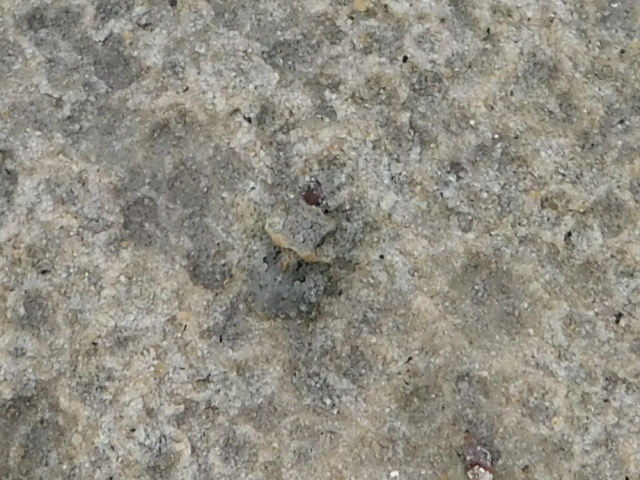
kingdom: Animalia
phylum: Arthropoda
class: Insecta
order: Hemiptera
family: Gelastocoridae
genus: Gelastocoris
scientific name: Gelastocoris oculatus
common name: Toad bug
